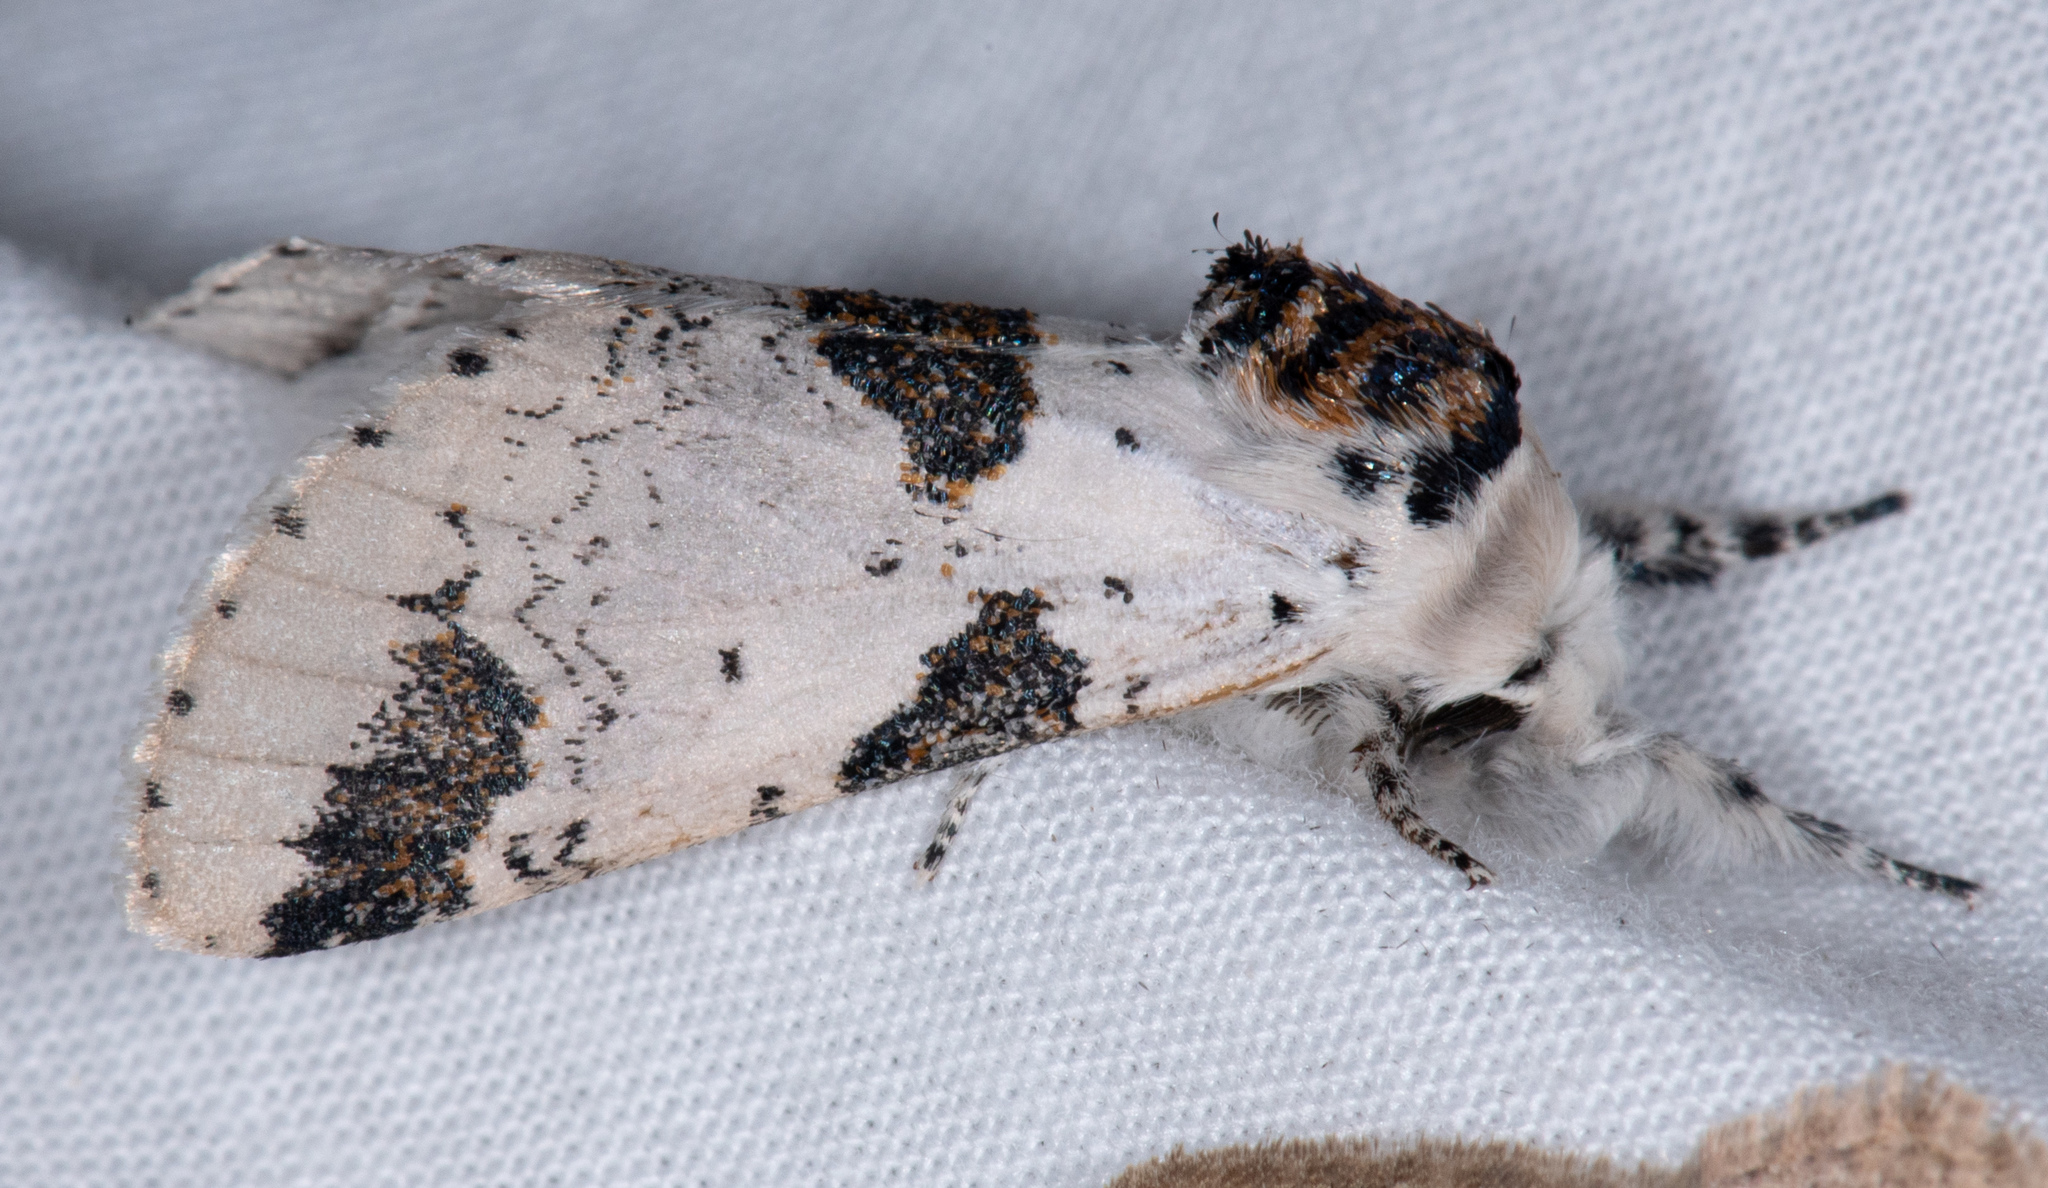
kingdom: Animalia
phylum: Arthropoda
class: Insecta
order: Lepidoptera
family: Notodontidae
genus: Furcula
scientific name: Furcula scolopendrina
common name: Zigzag furcula moth
